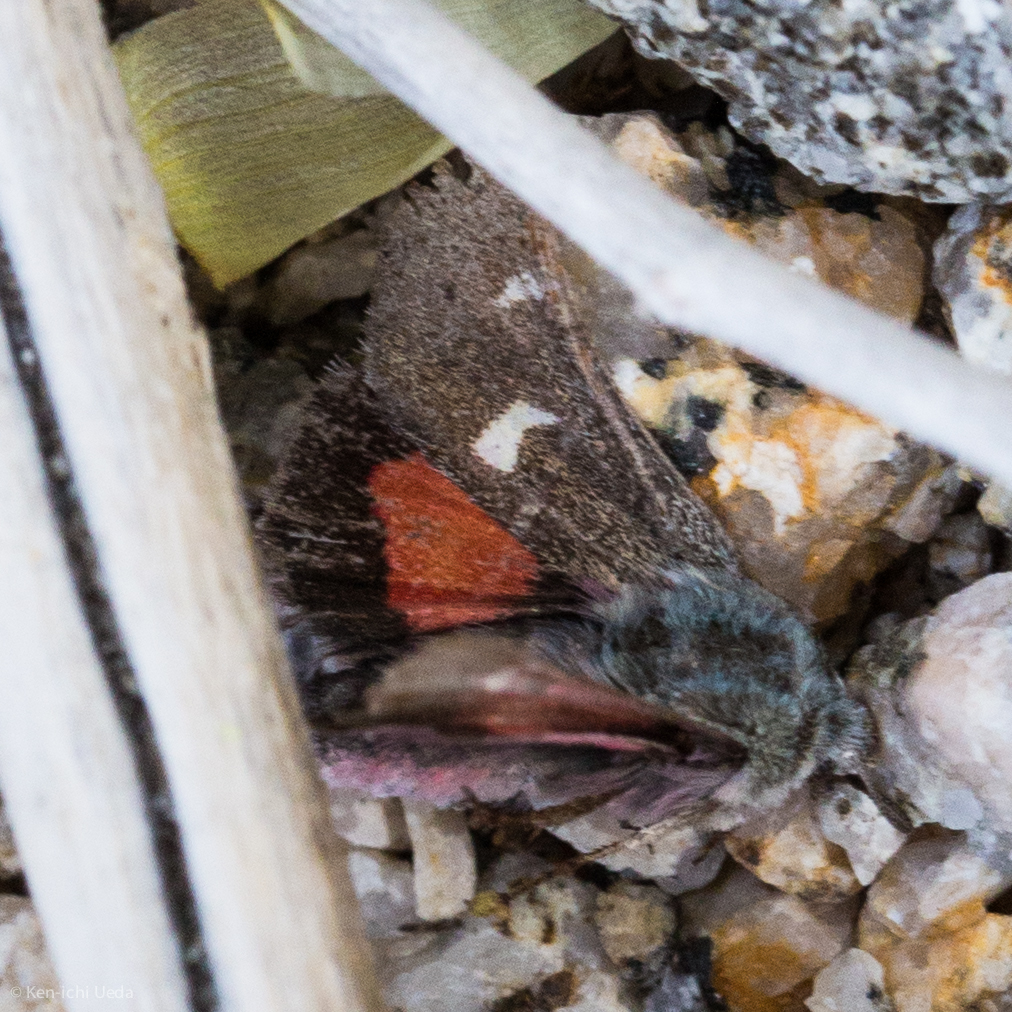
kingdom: Animalia
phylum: Arthropoda
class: Insecta
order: Lepidoptera
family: Noctuidae
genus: Baptarma
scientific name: Baptarma felicita
